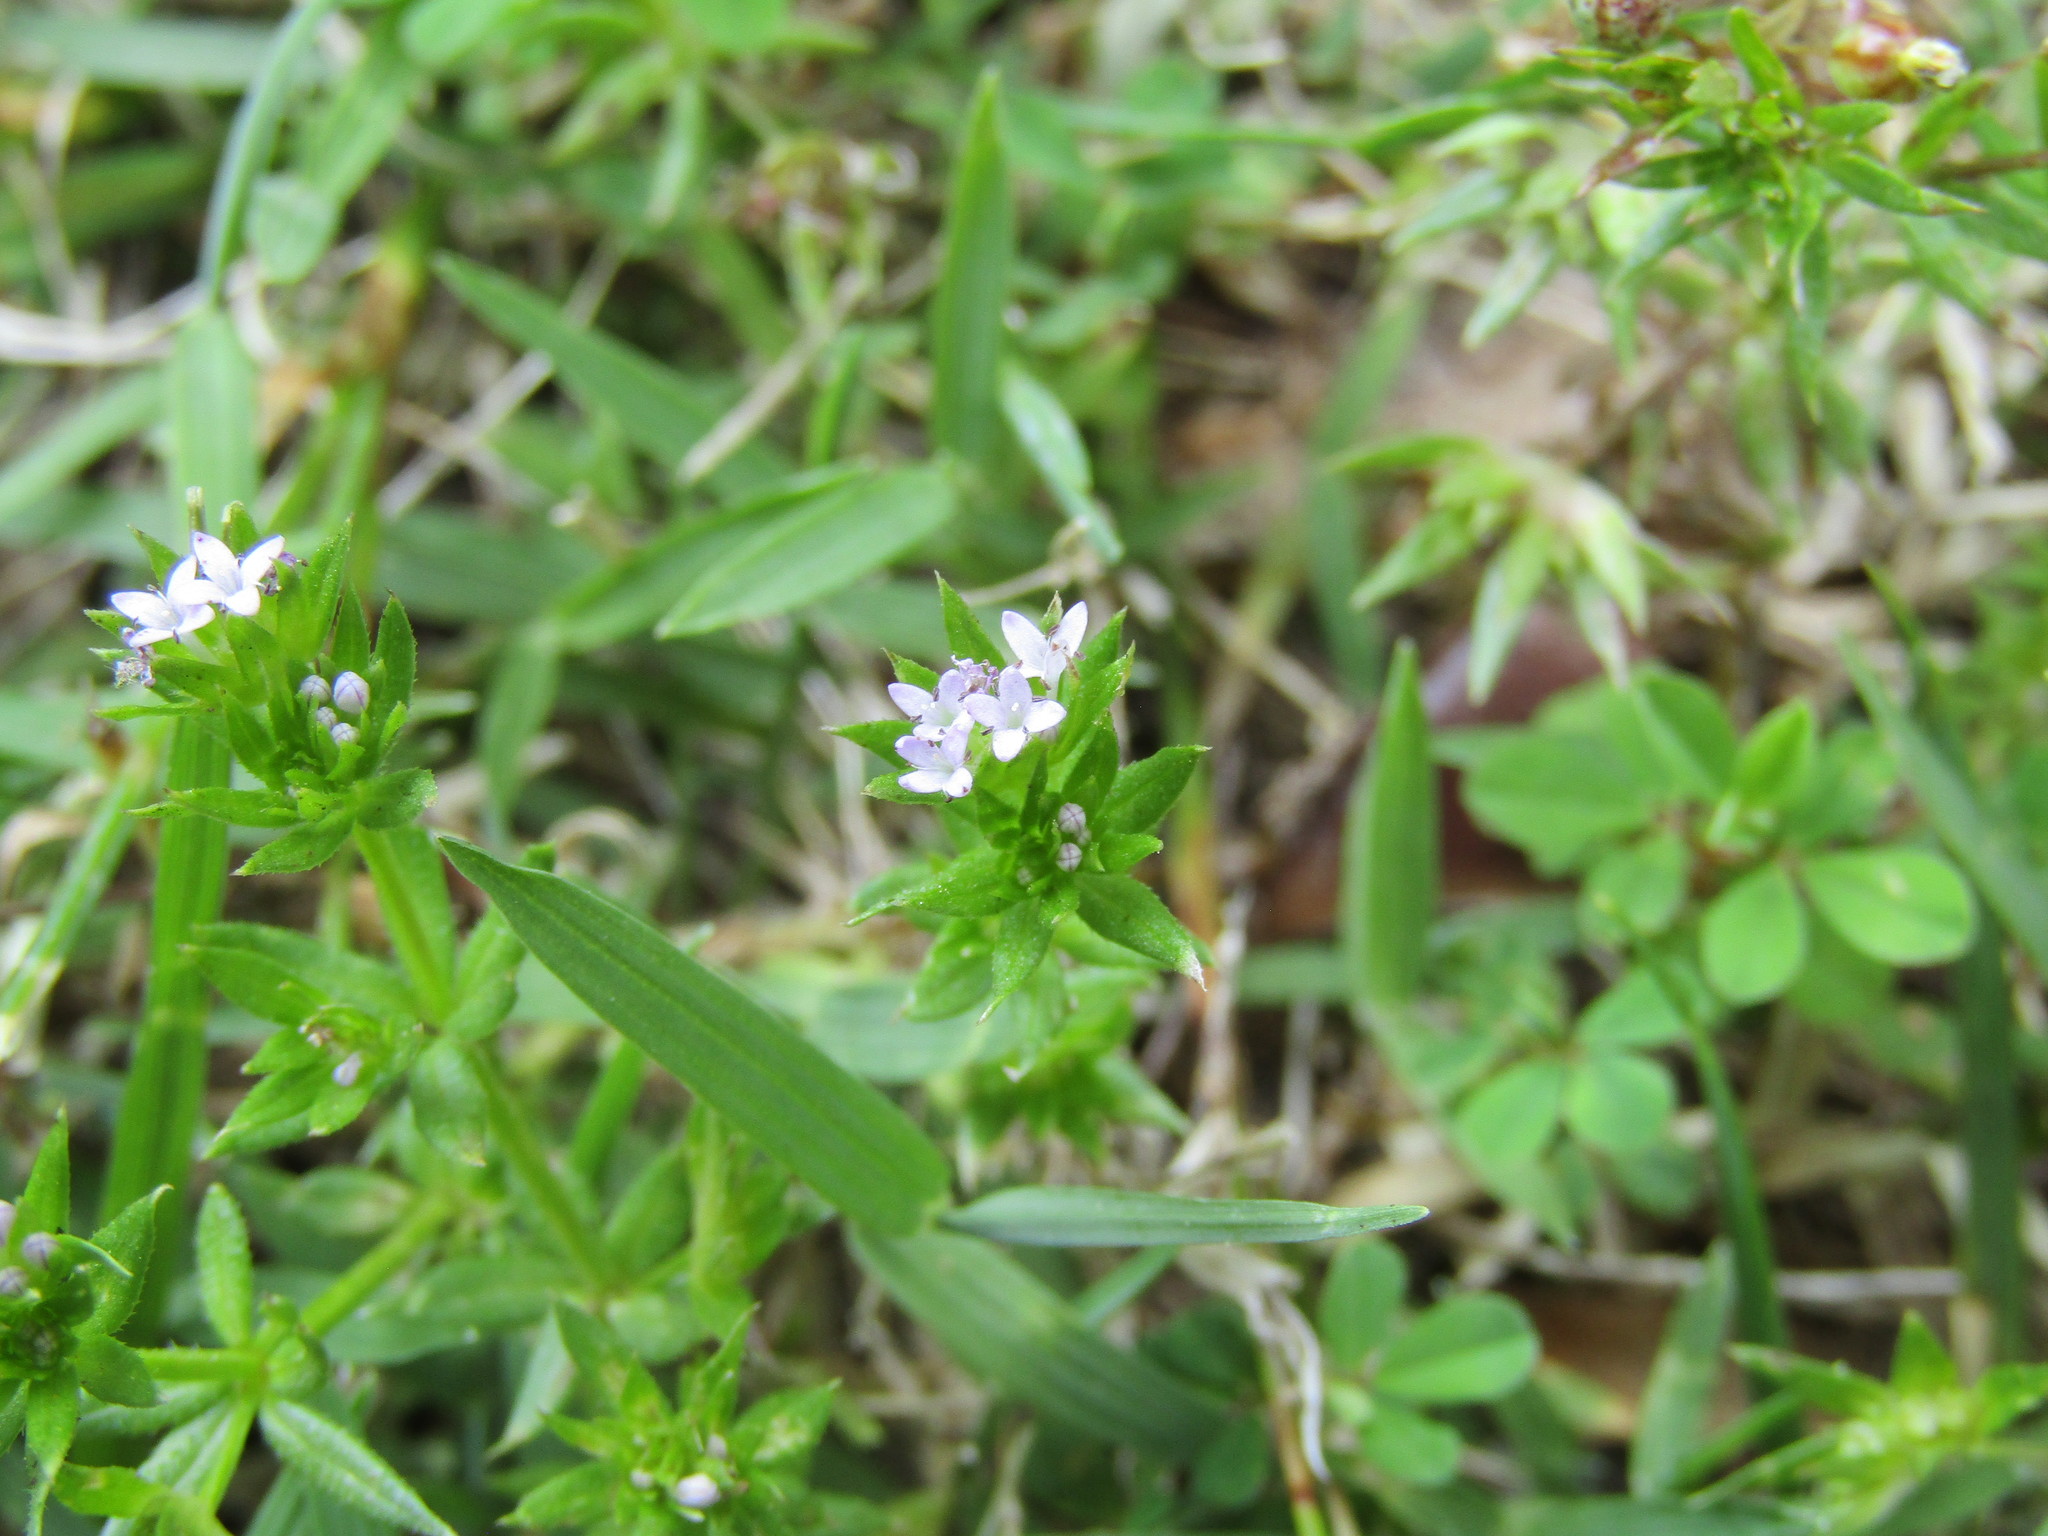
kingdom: Plantae
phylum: Tracheophyta
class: Magnoliopsida
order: Gentianales
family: Rubiaceae
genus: Sherardia
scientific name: Sherardia arvensis
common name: Field madder
